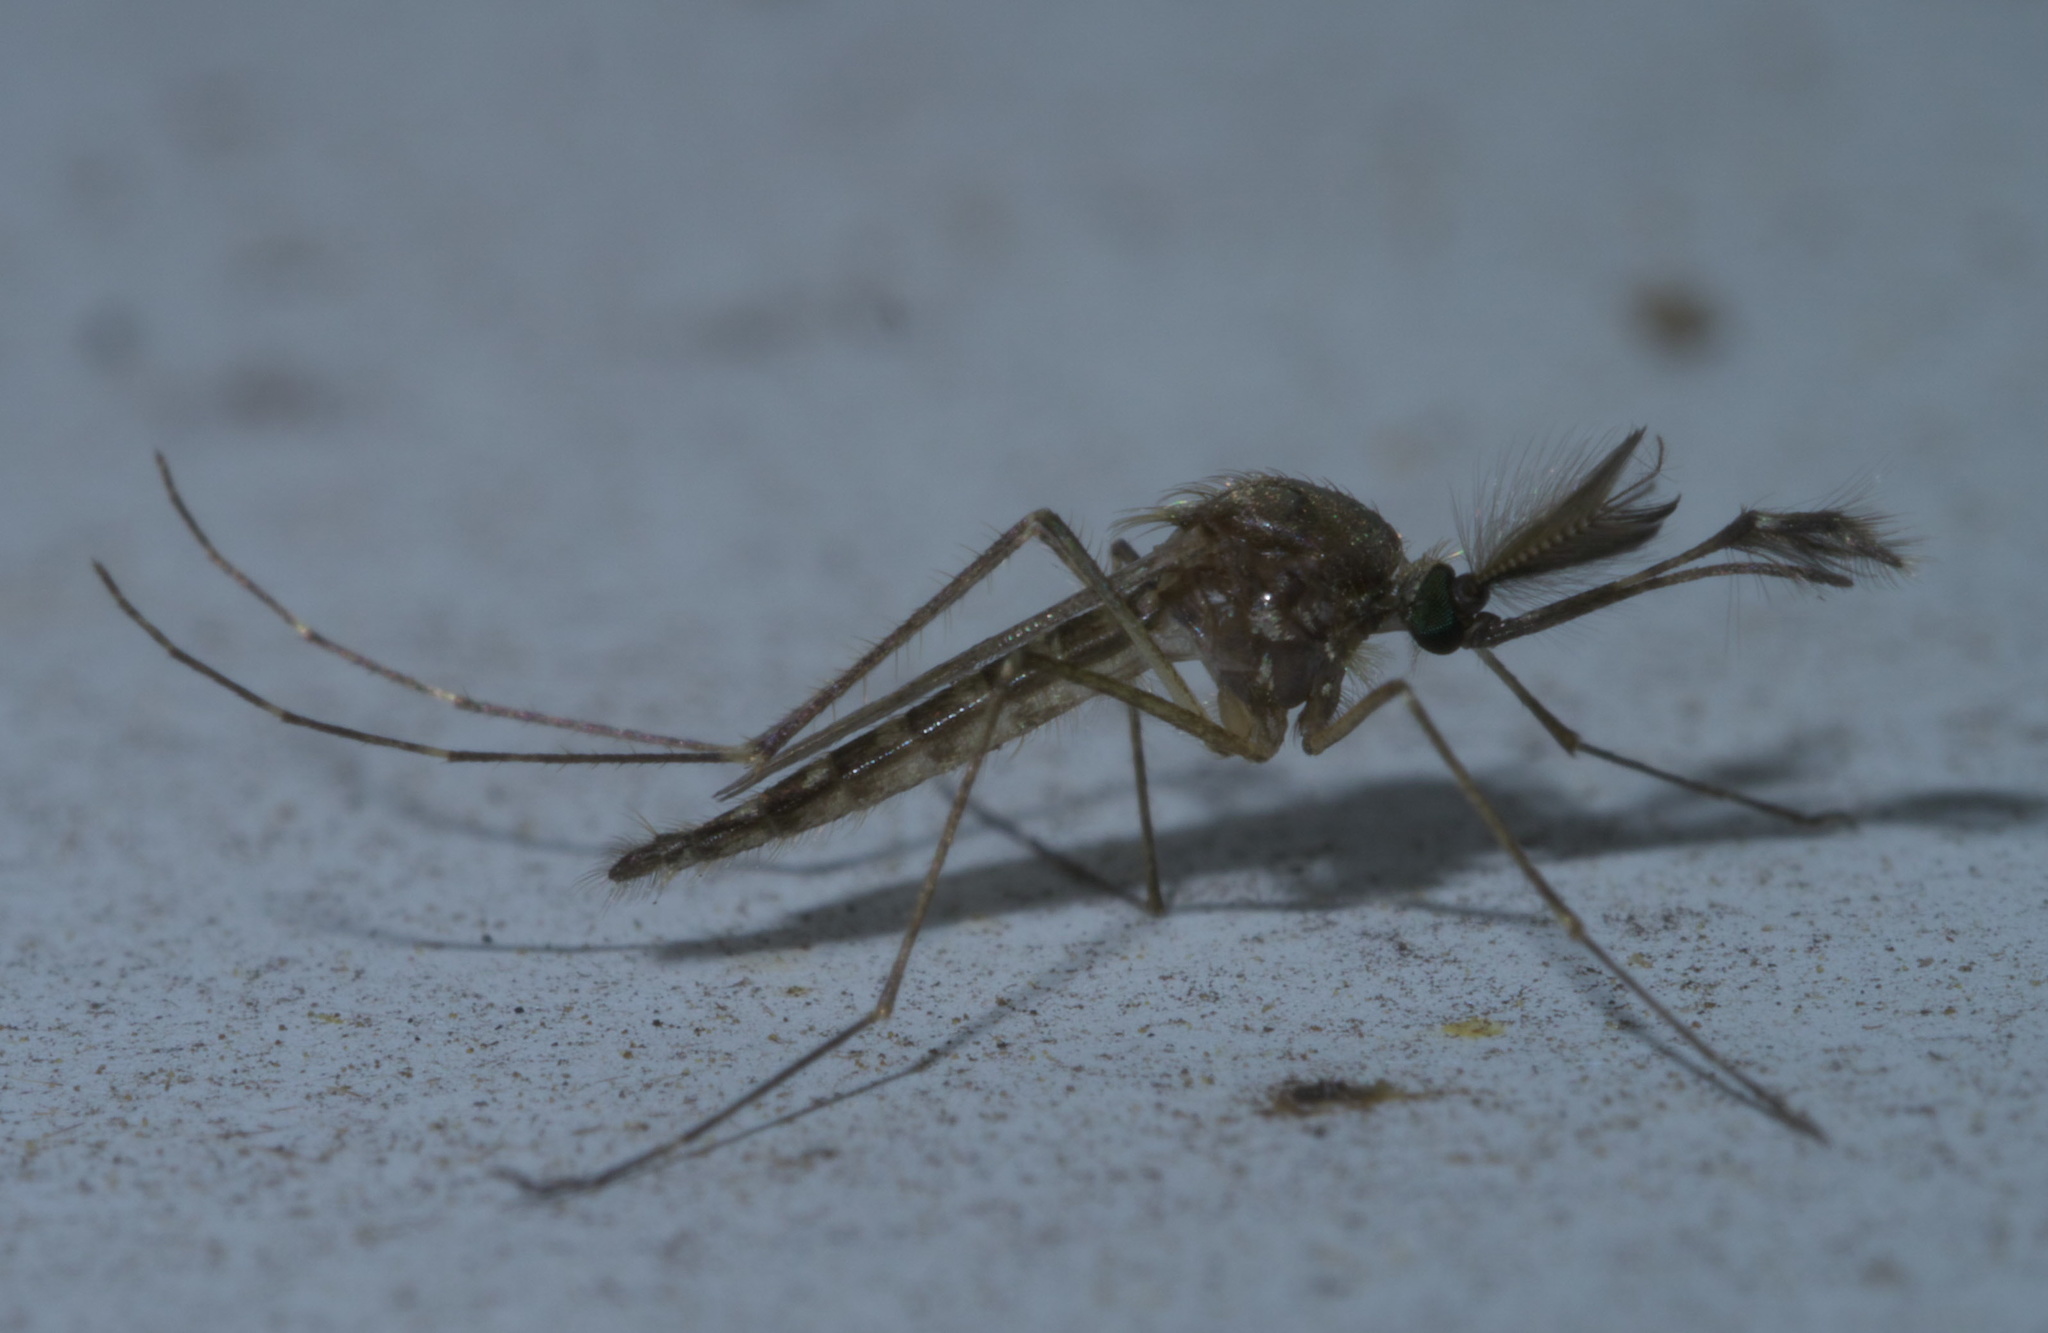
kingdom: Animalia
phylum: Arthropoda
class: Insecta
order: Diptera
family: Culicidae
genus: Aedes
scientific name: Aedes vexans
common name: Inland floodwater mosquito
